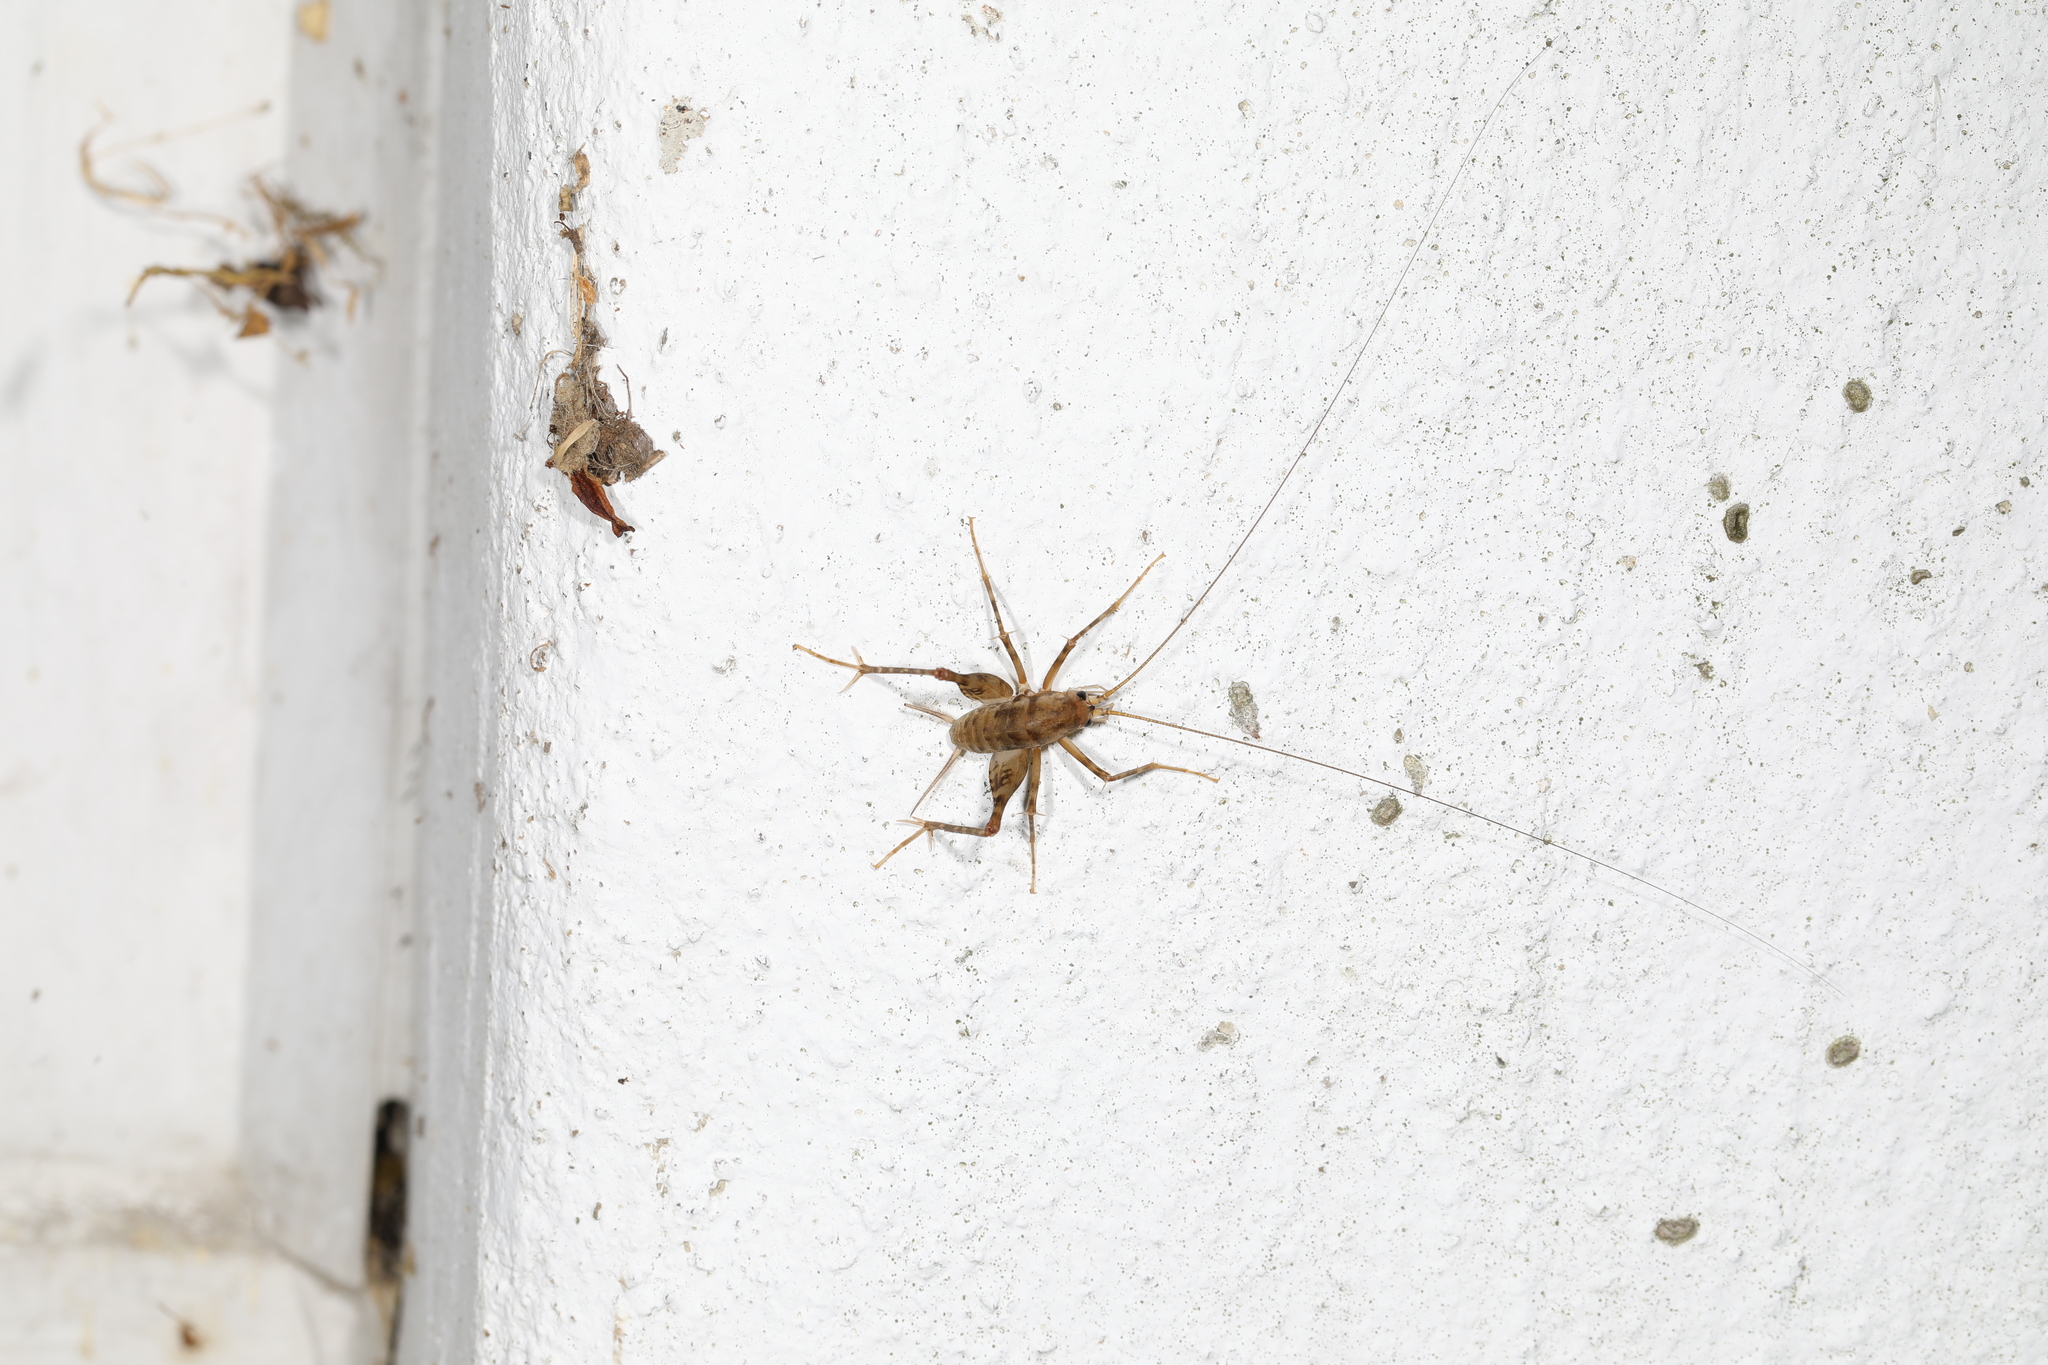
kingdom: Animalia
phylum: Arthropoda
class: Insecta
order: Orthoptera
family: Rhaphidophoridae
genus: Tachycines
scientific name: Tachycines asynamorus
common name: Greenhouse camel cricket
